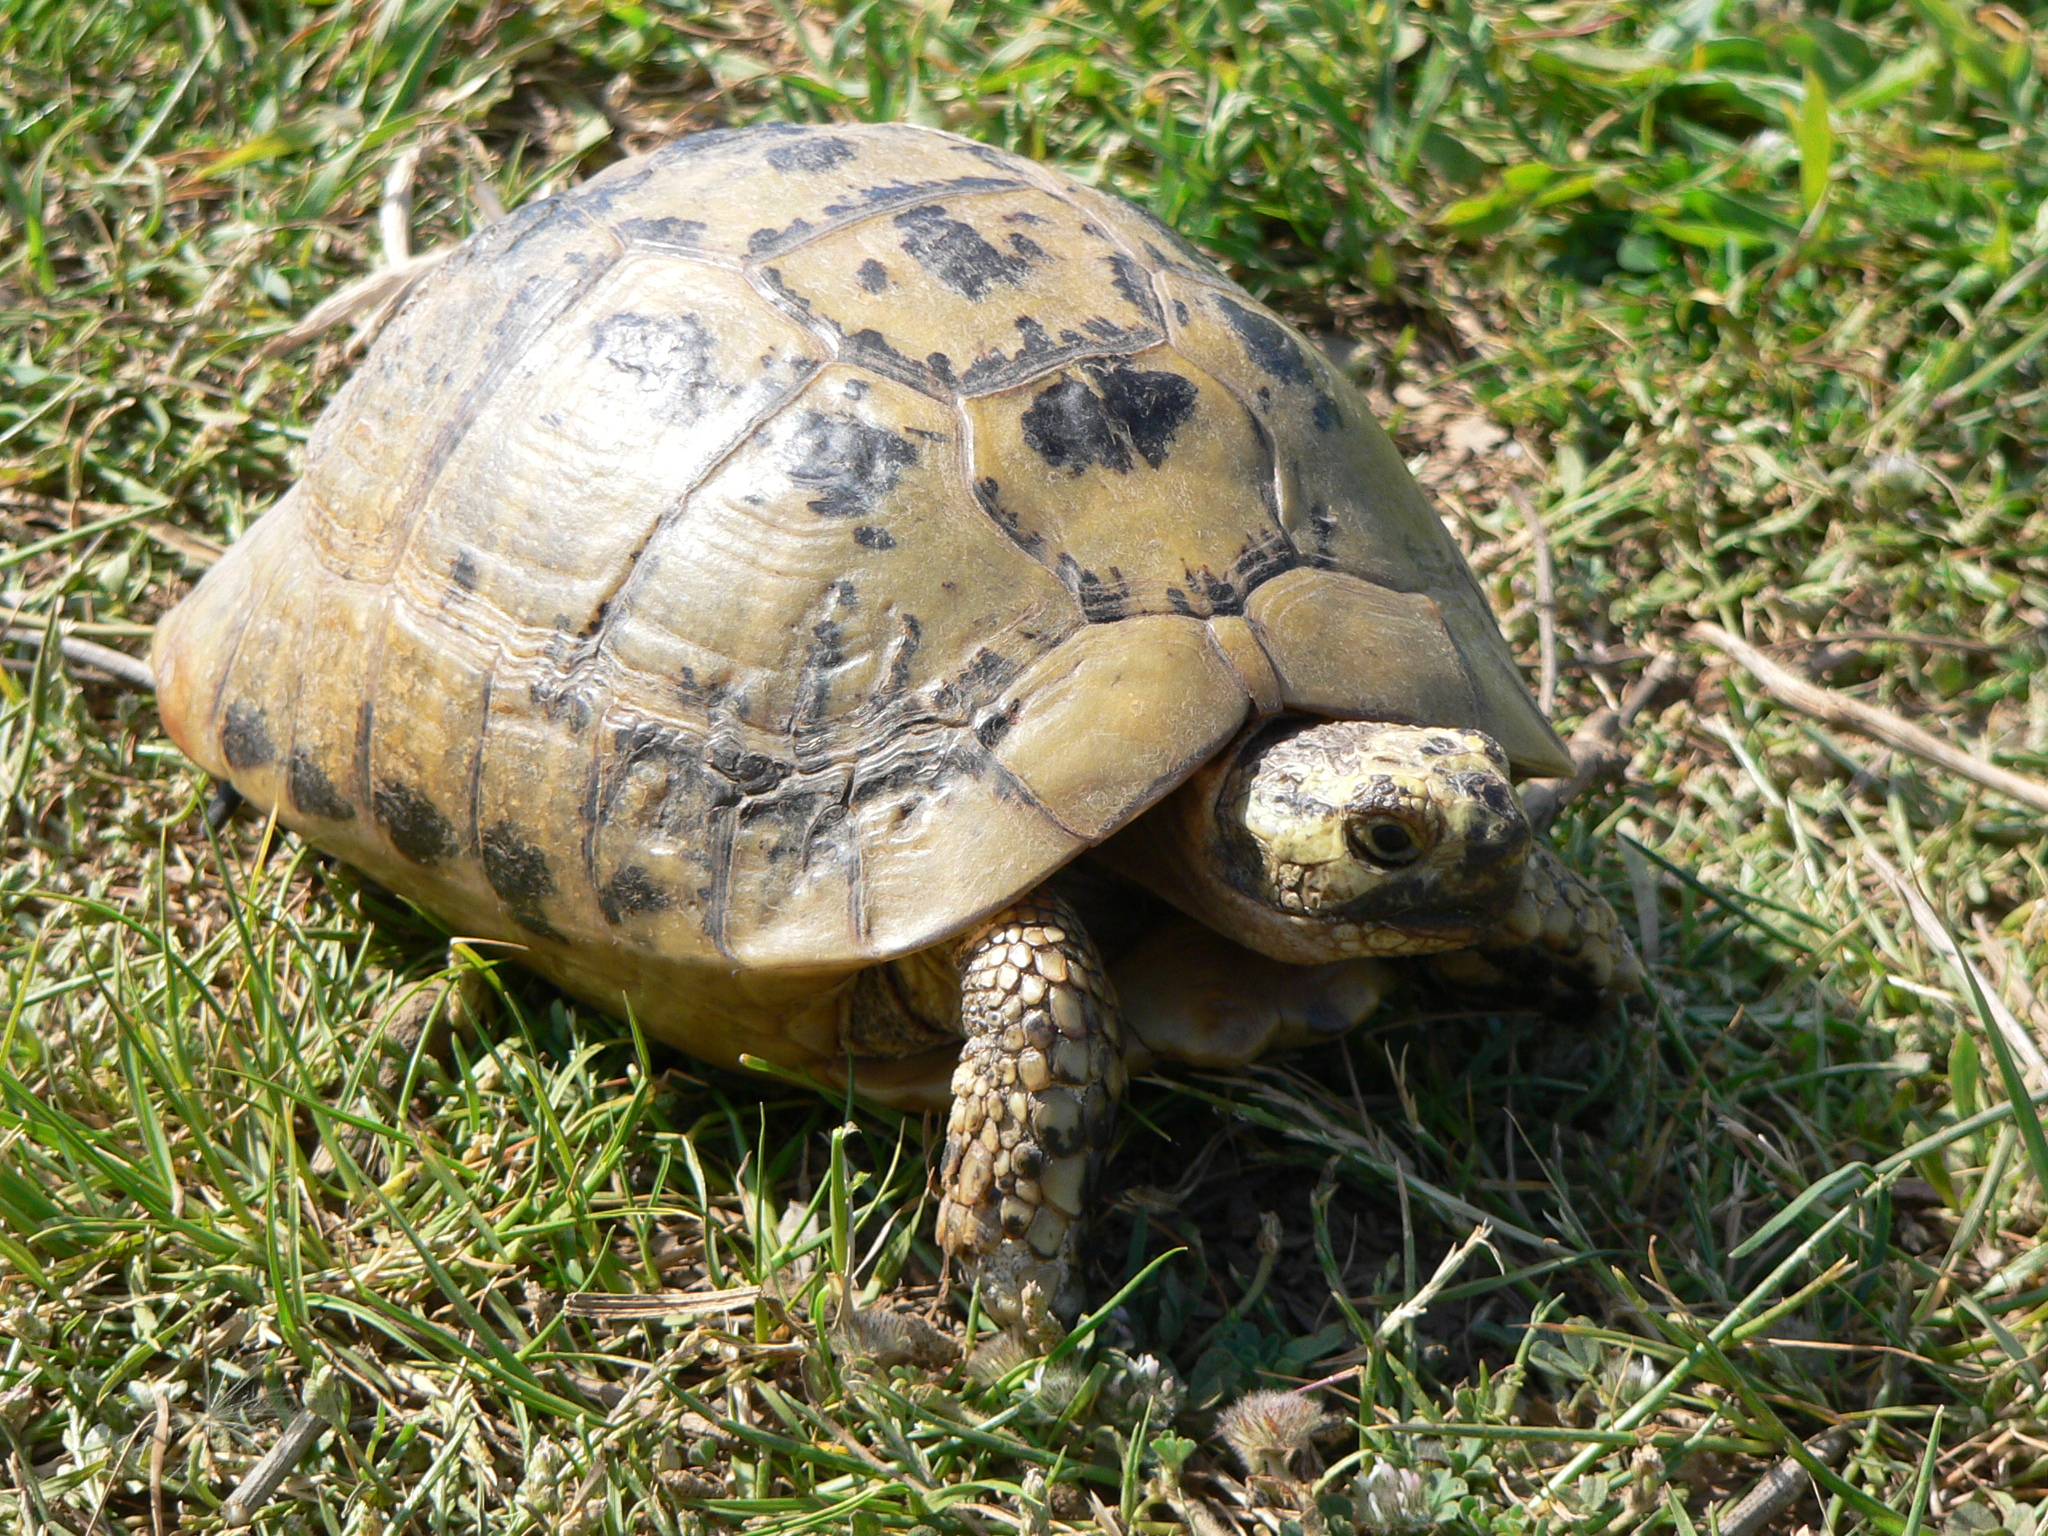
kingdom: Animalia
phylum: Chordata
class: Testudines
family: Testudinidae
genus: Testudo
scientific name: Testudo graeca
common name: Common tortoise
